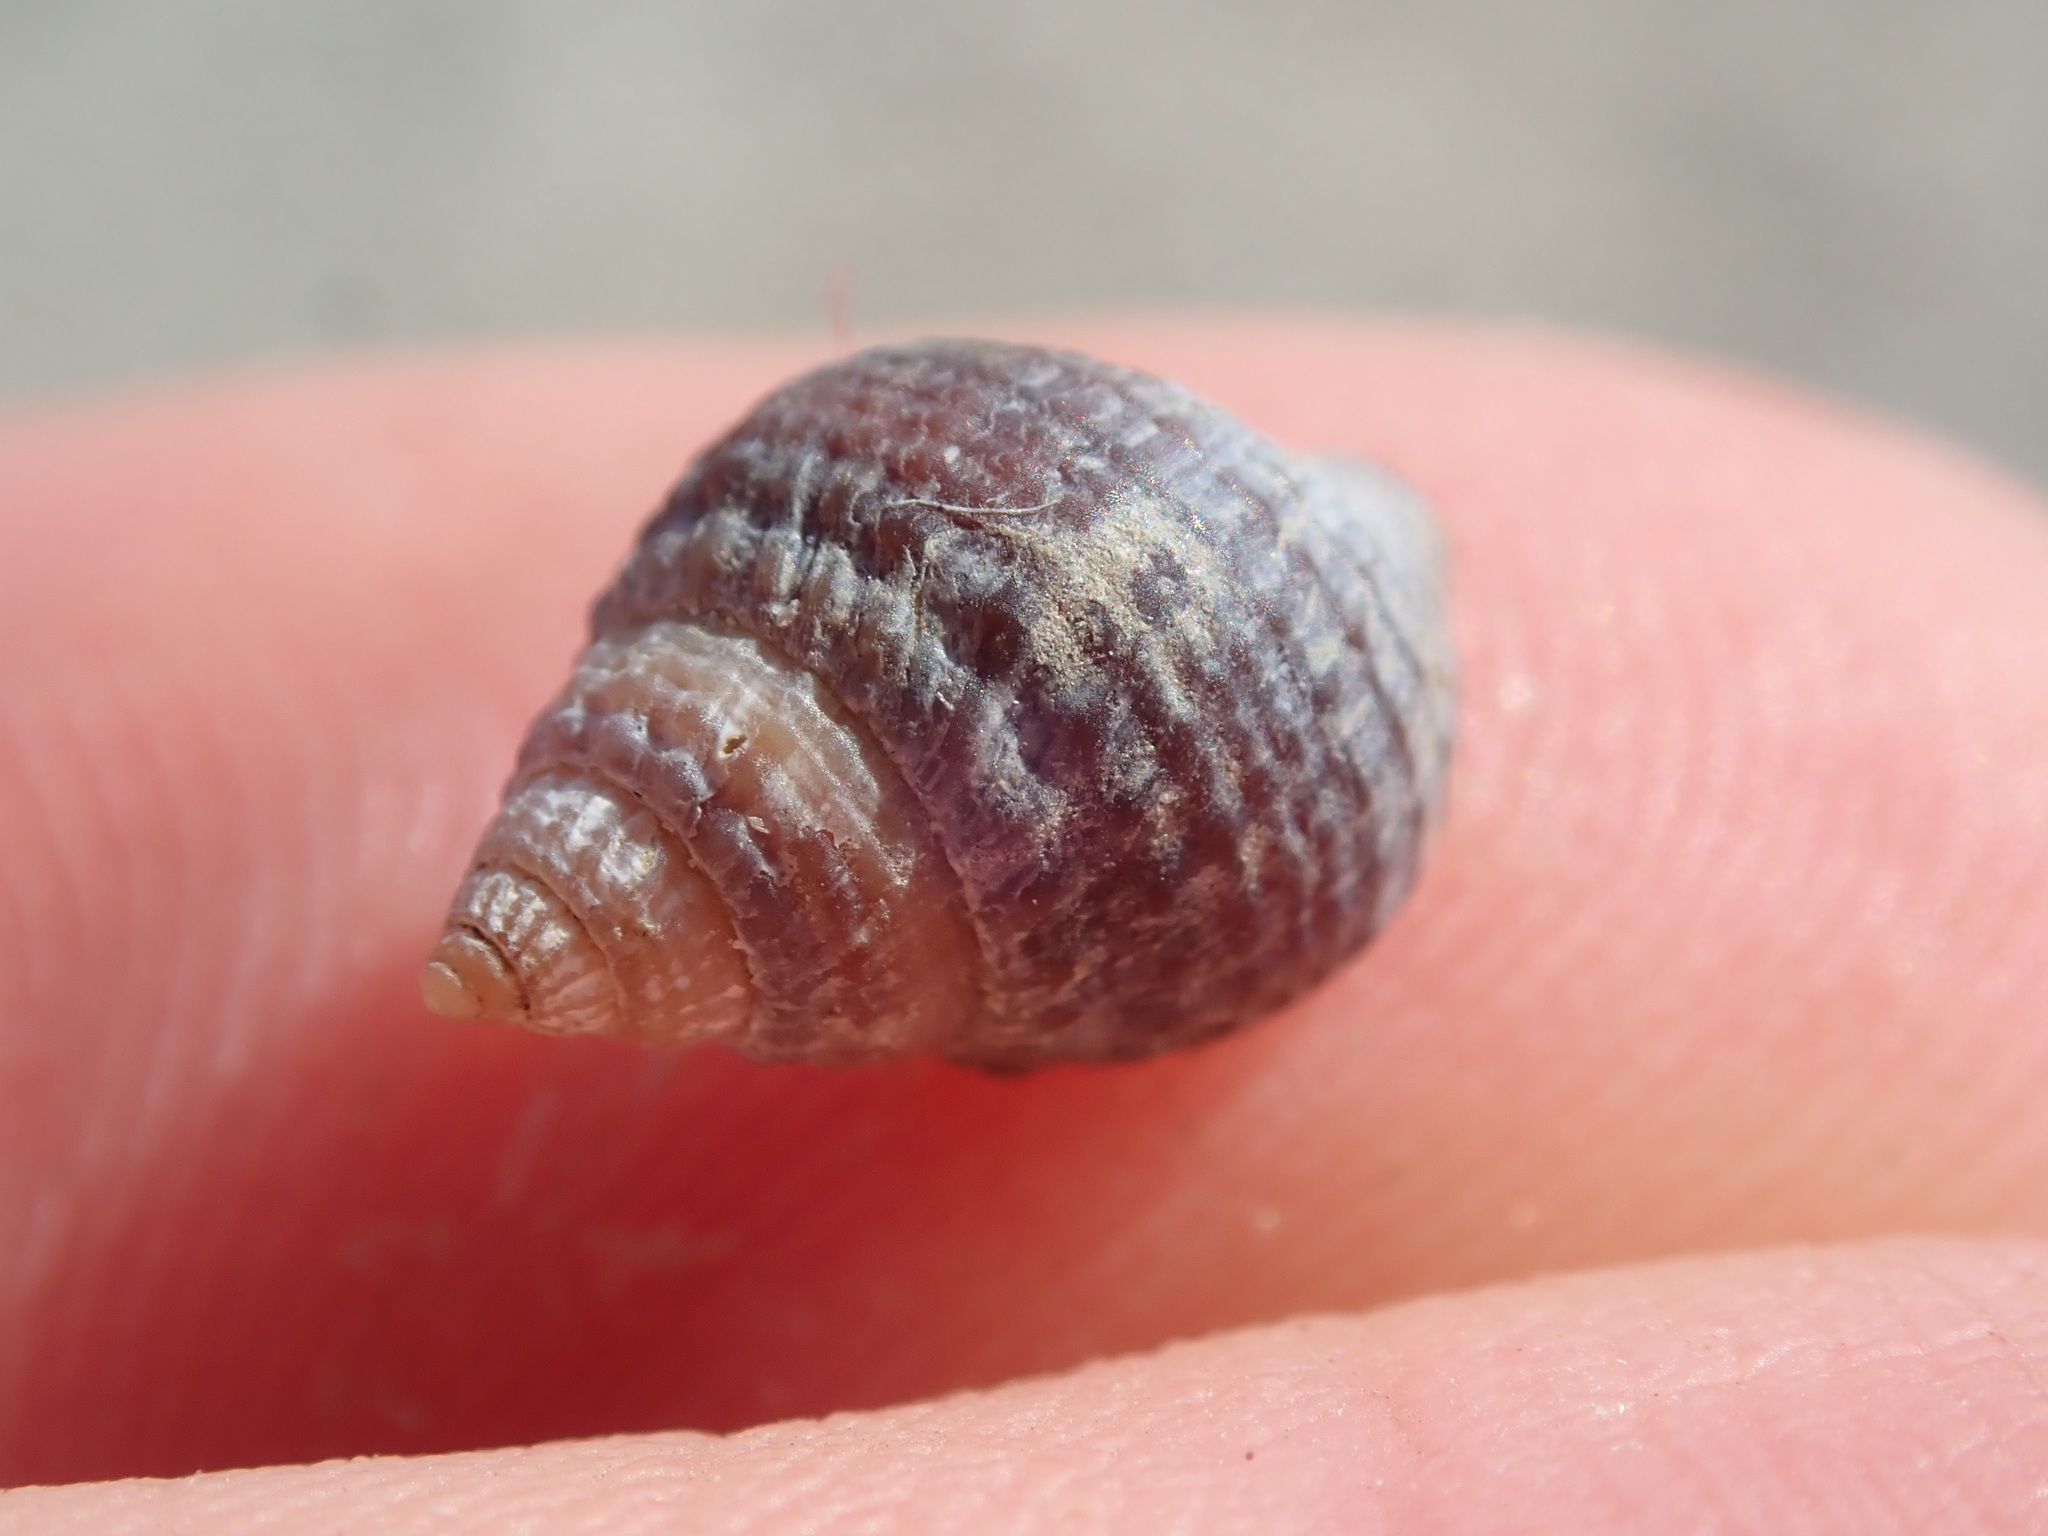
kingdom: Animalia
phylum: Mollusca
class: Gastropoda
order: Neogastropoda
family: Nassariidae
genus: Ilyanassa
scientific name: Ilyanassa obsoleta
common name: Eastern mudsnail
